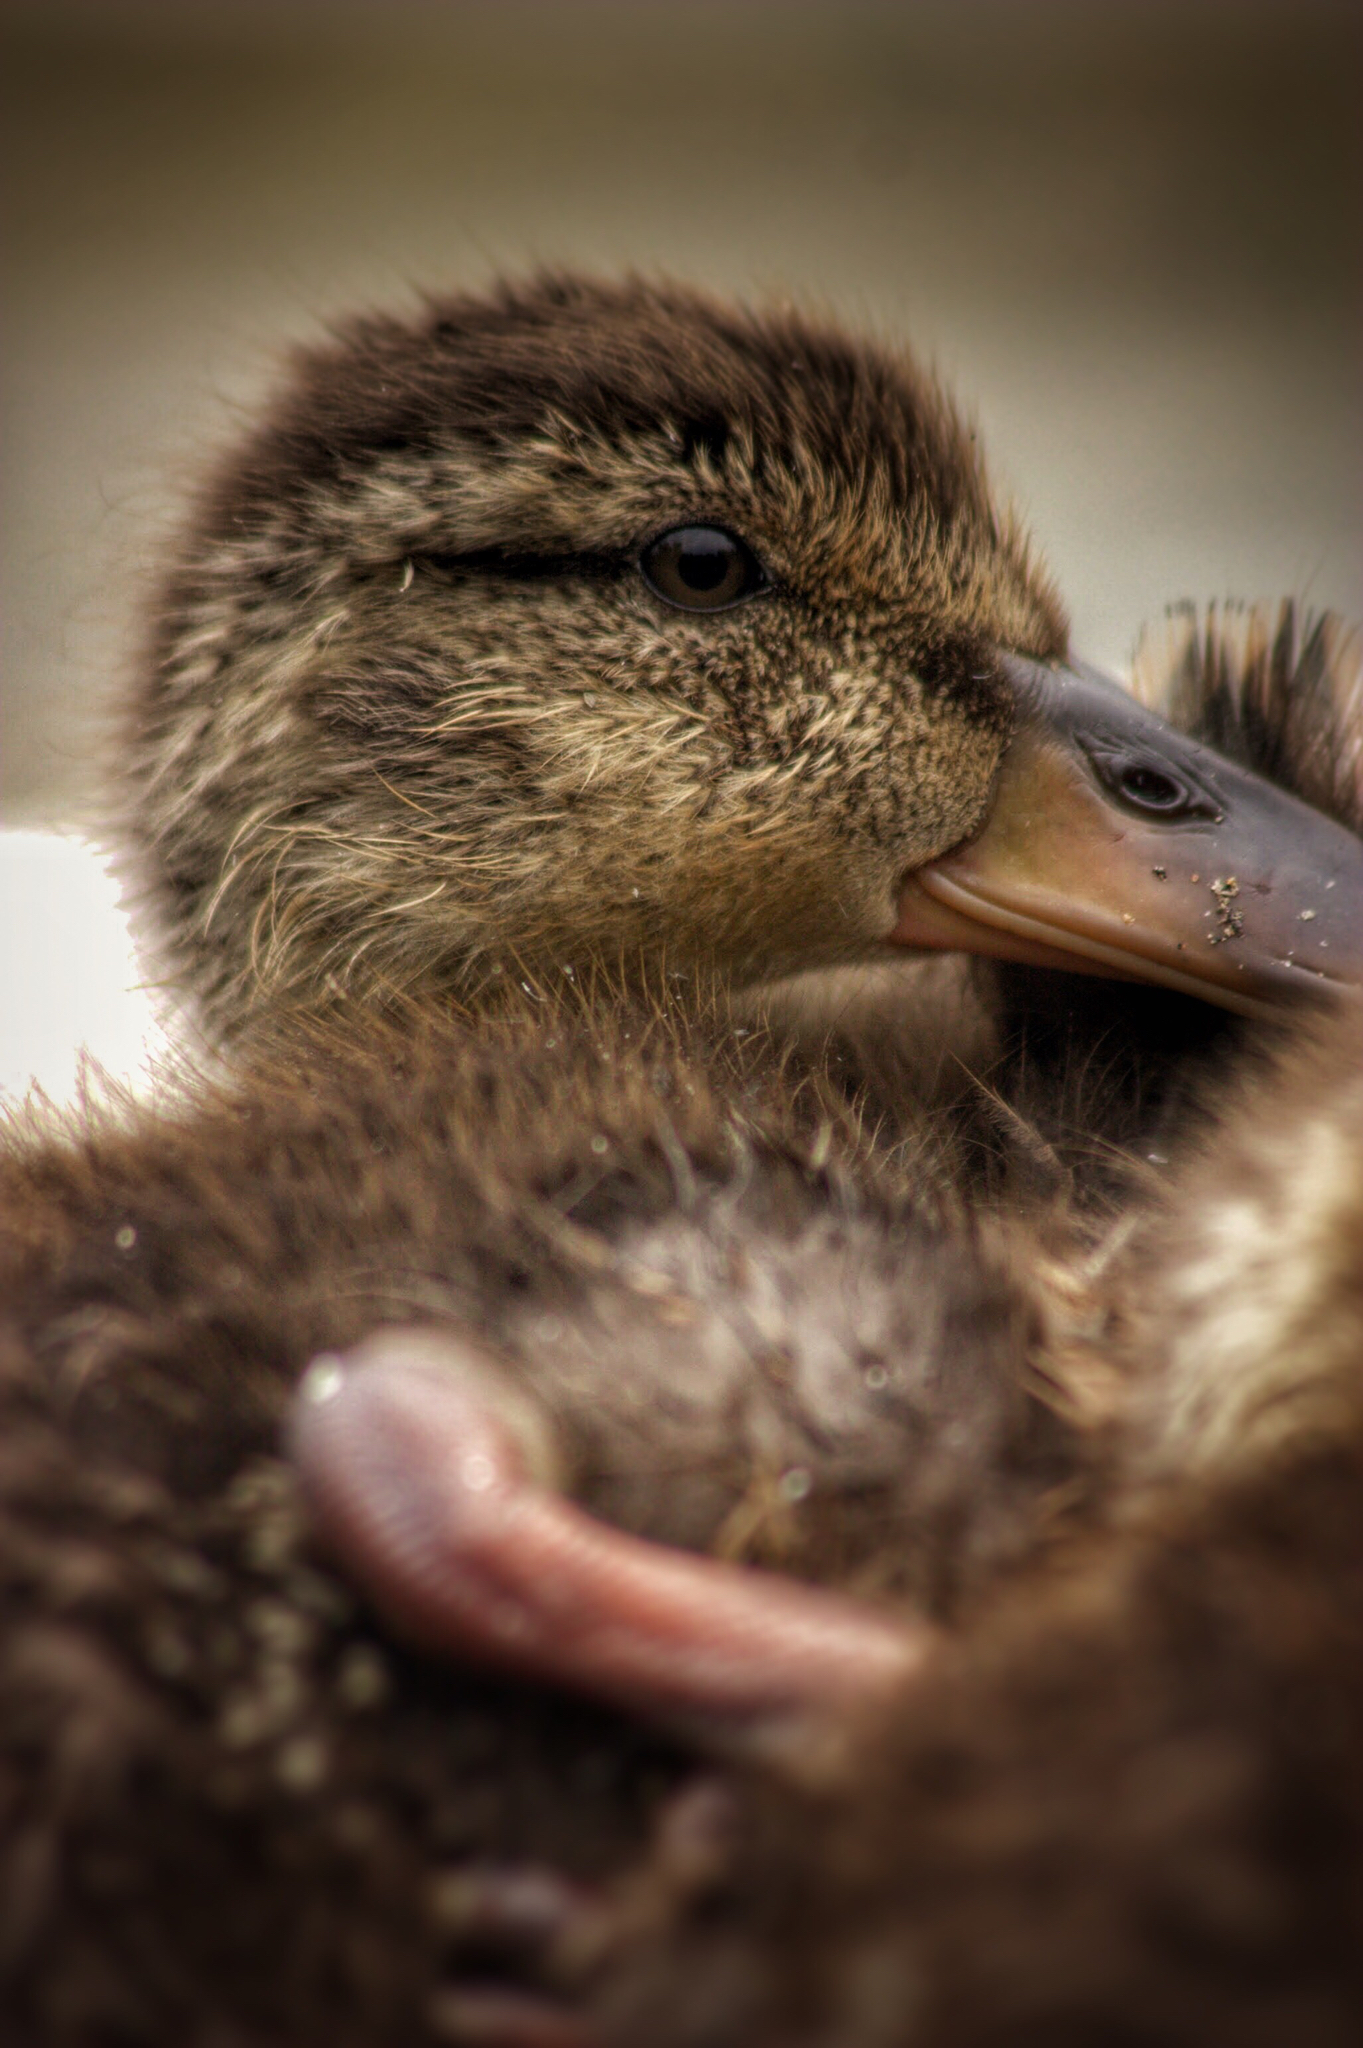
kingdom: Animalia
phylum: Chordata
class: Aves
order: Anseriformes
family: Anatidae
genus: Anas
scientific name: Anas platyrhynchos
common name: Mallard
